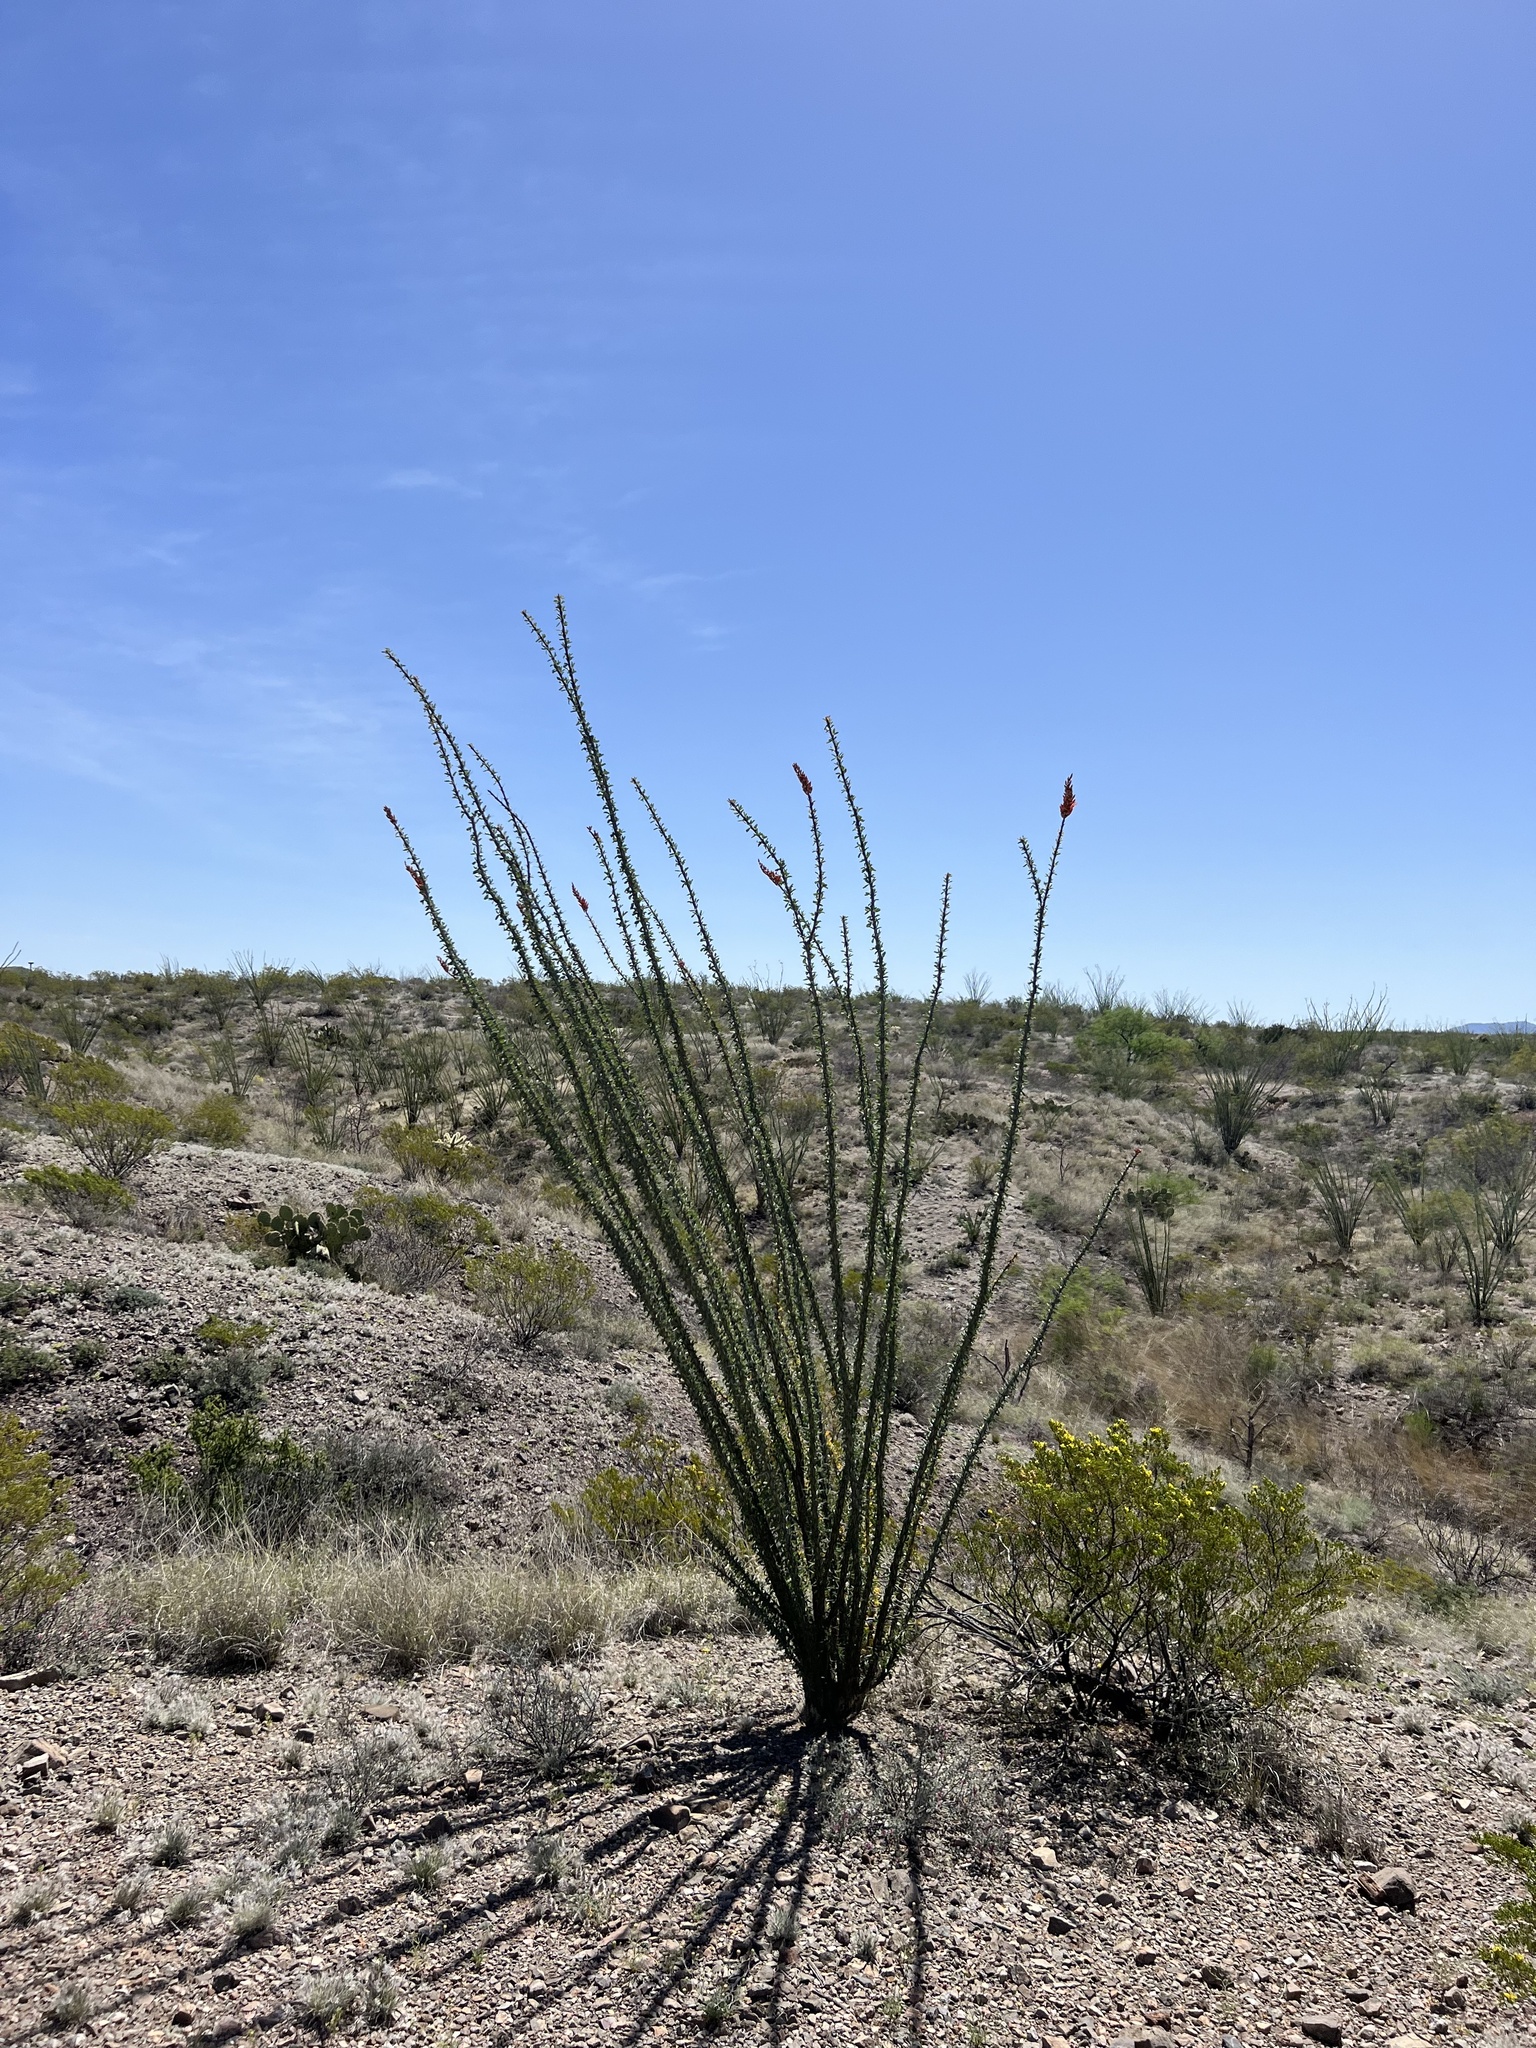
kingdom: Plantae
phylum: Tracheophyta
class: Magnoliopsida
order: Ericales
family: Fouquieriaceae
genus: Fouquieria
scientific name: Fouquieria splendens
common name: Vine-cactus
